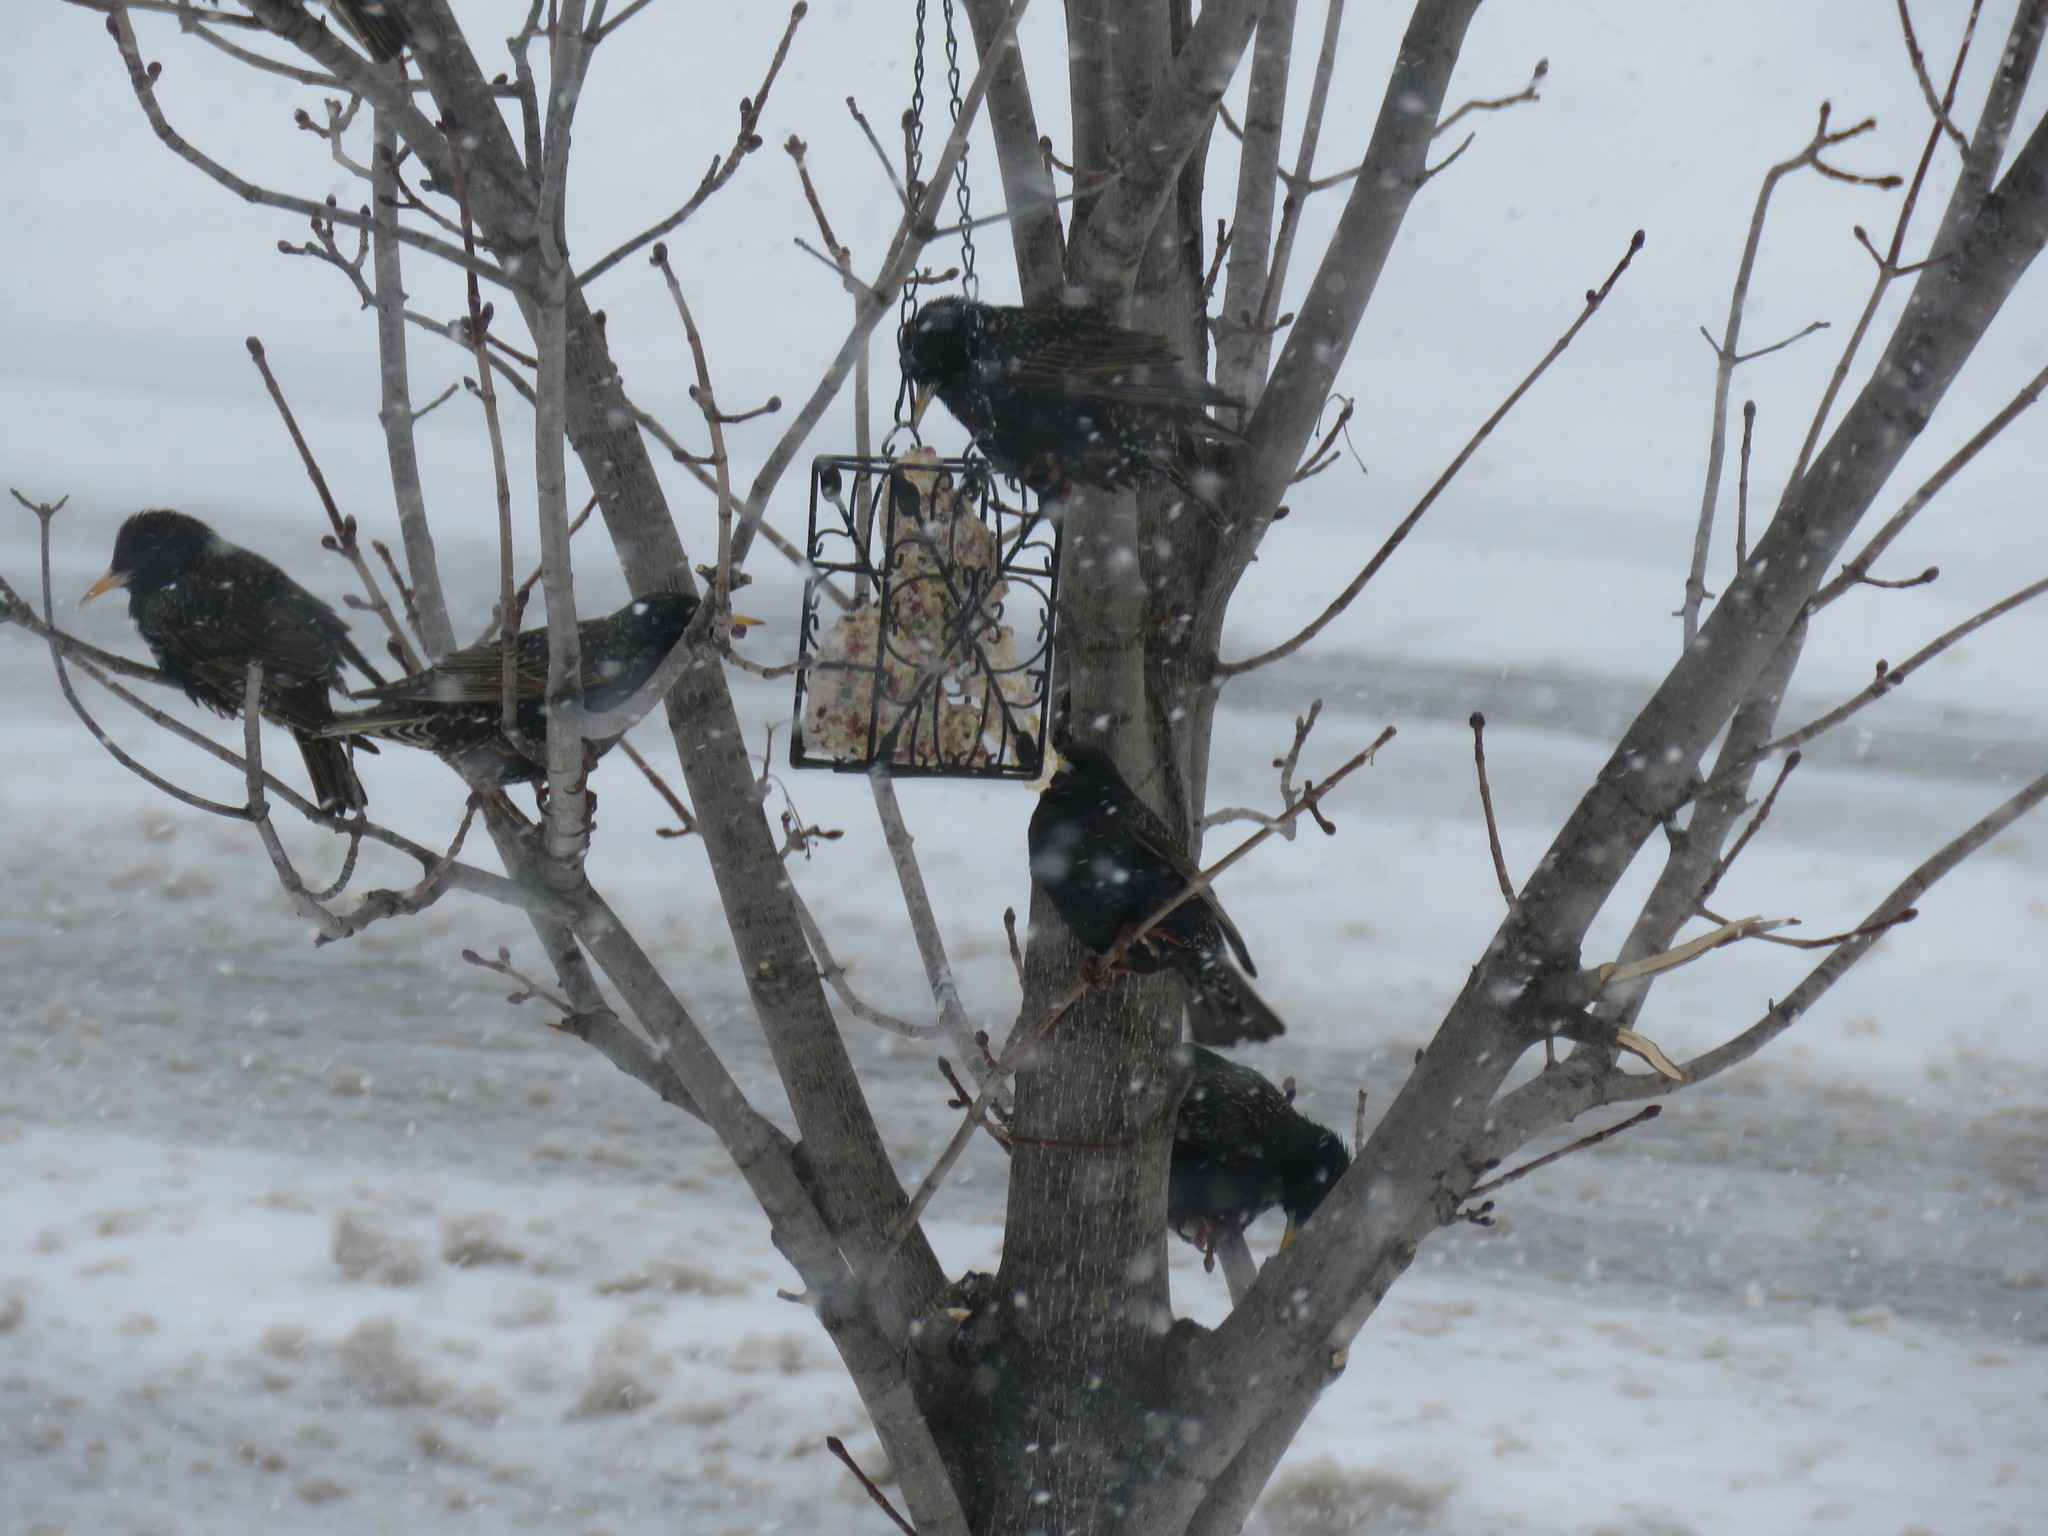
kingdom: Animalia
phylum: Chordata
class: Aves
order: Passeriformes
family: Sturnidae
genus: Sturnus
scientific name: Sturnus vulgaris
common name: Common starling
